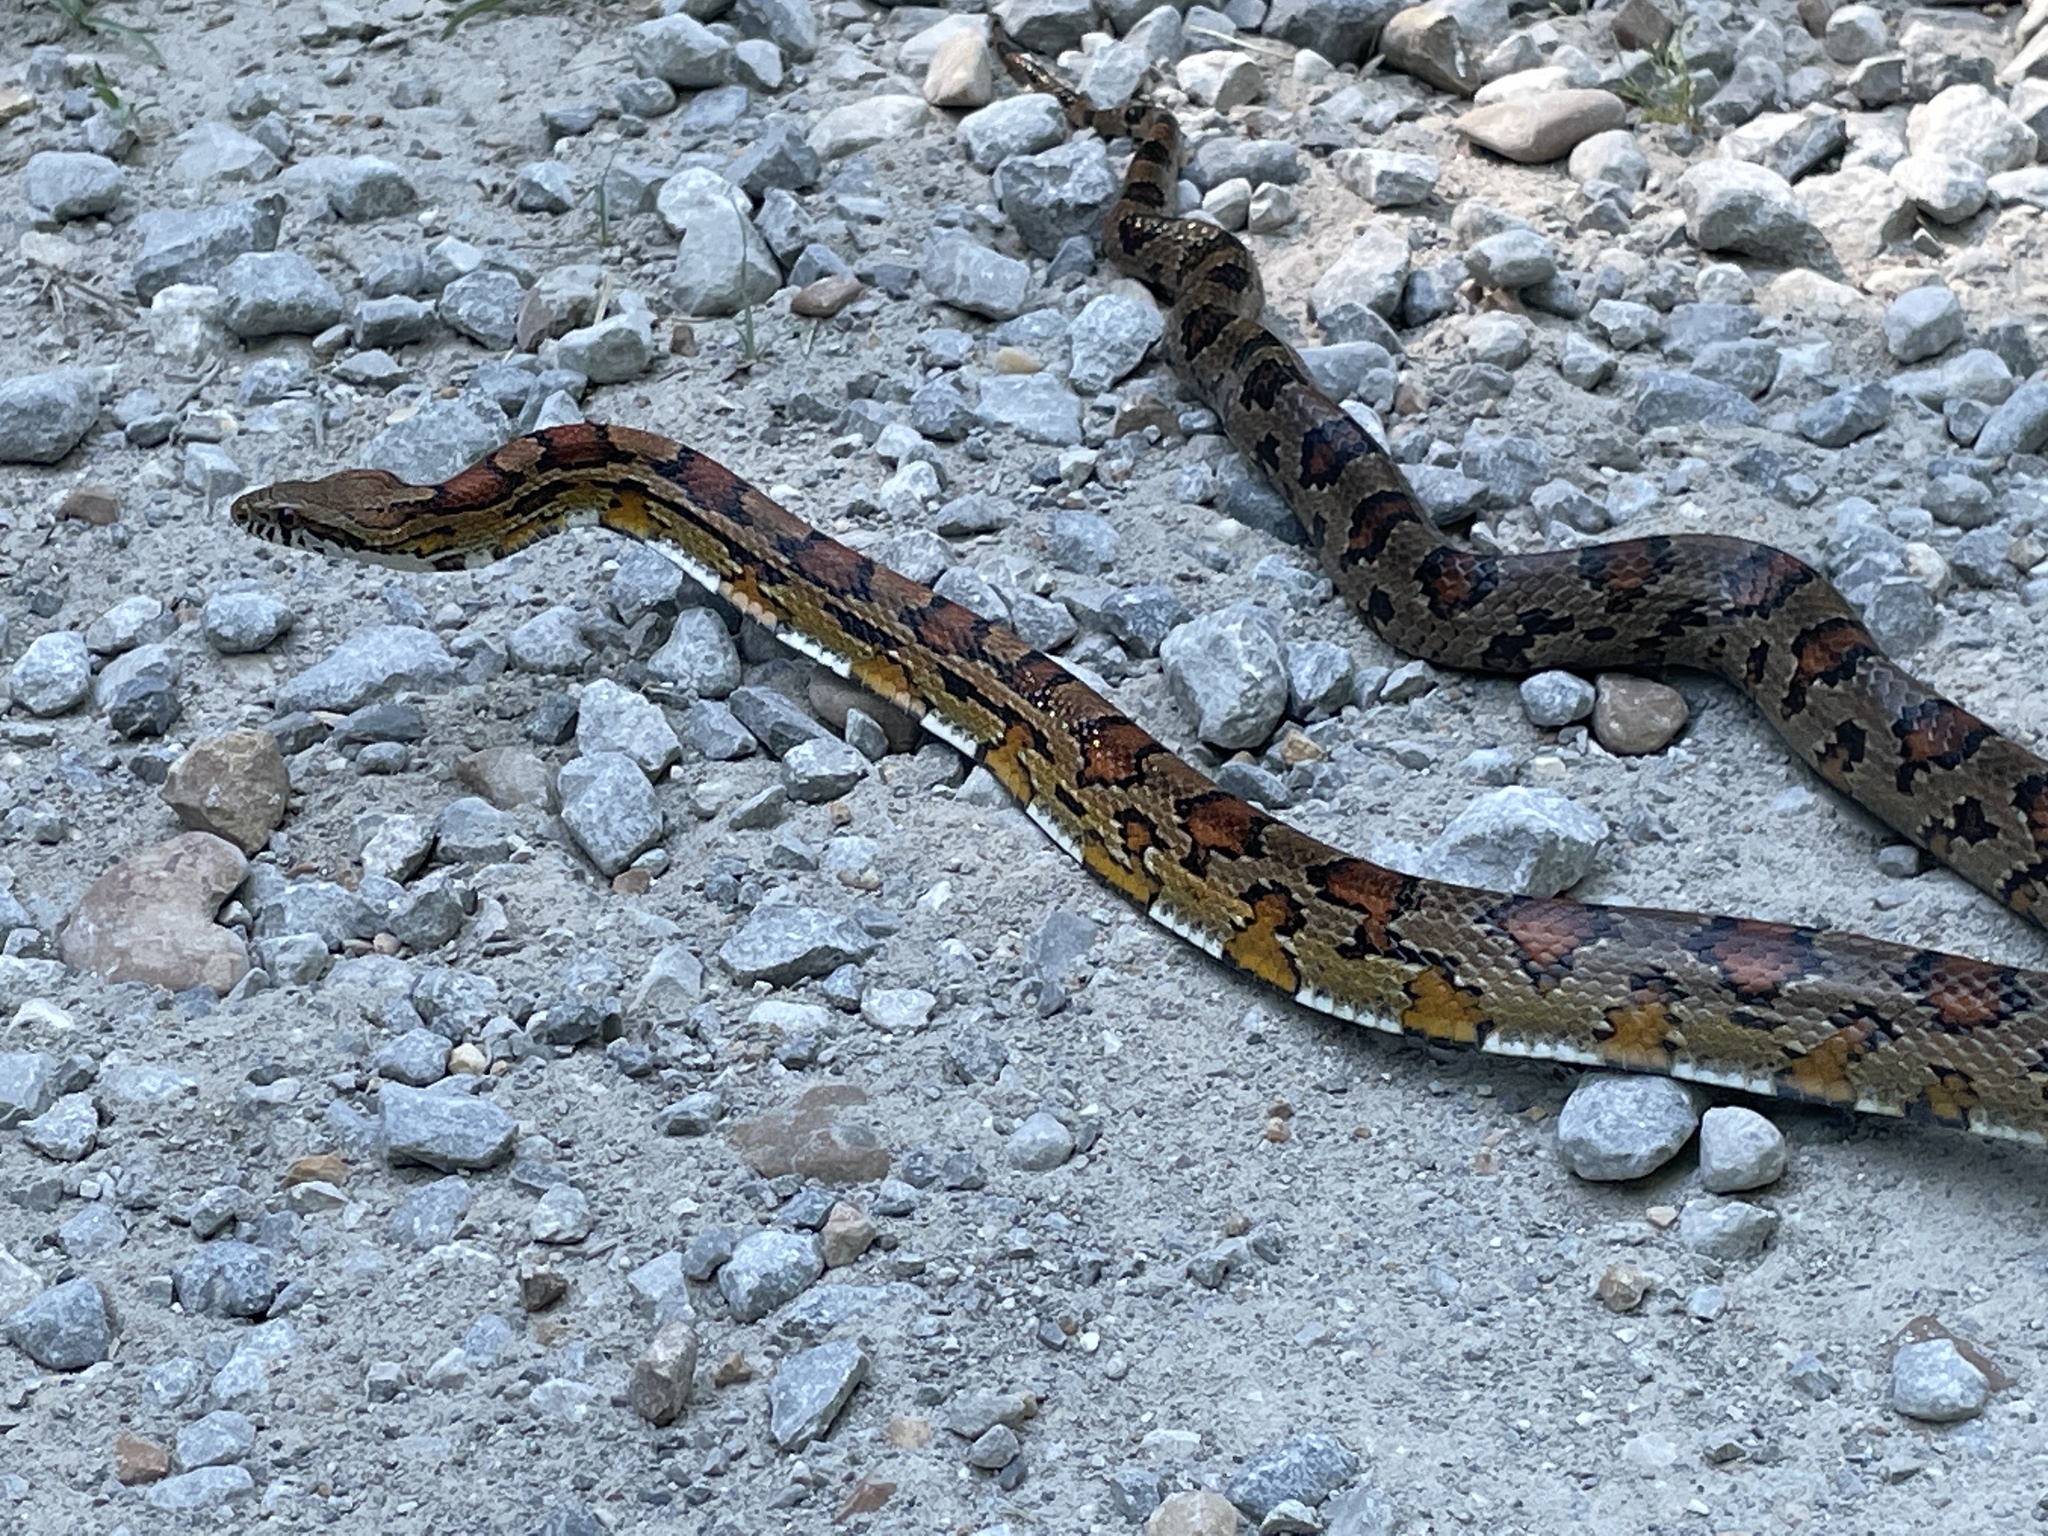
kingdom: Animalia
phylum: Chordata
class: Squamata
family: Colubridae
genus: Pantherophis
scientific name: Pantherophis guttatus
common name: Red cornsnake
